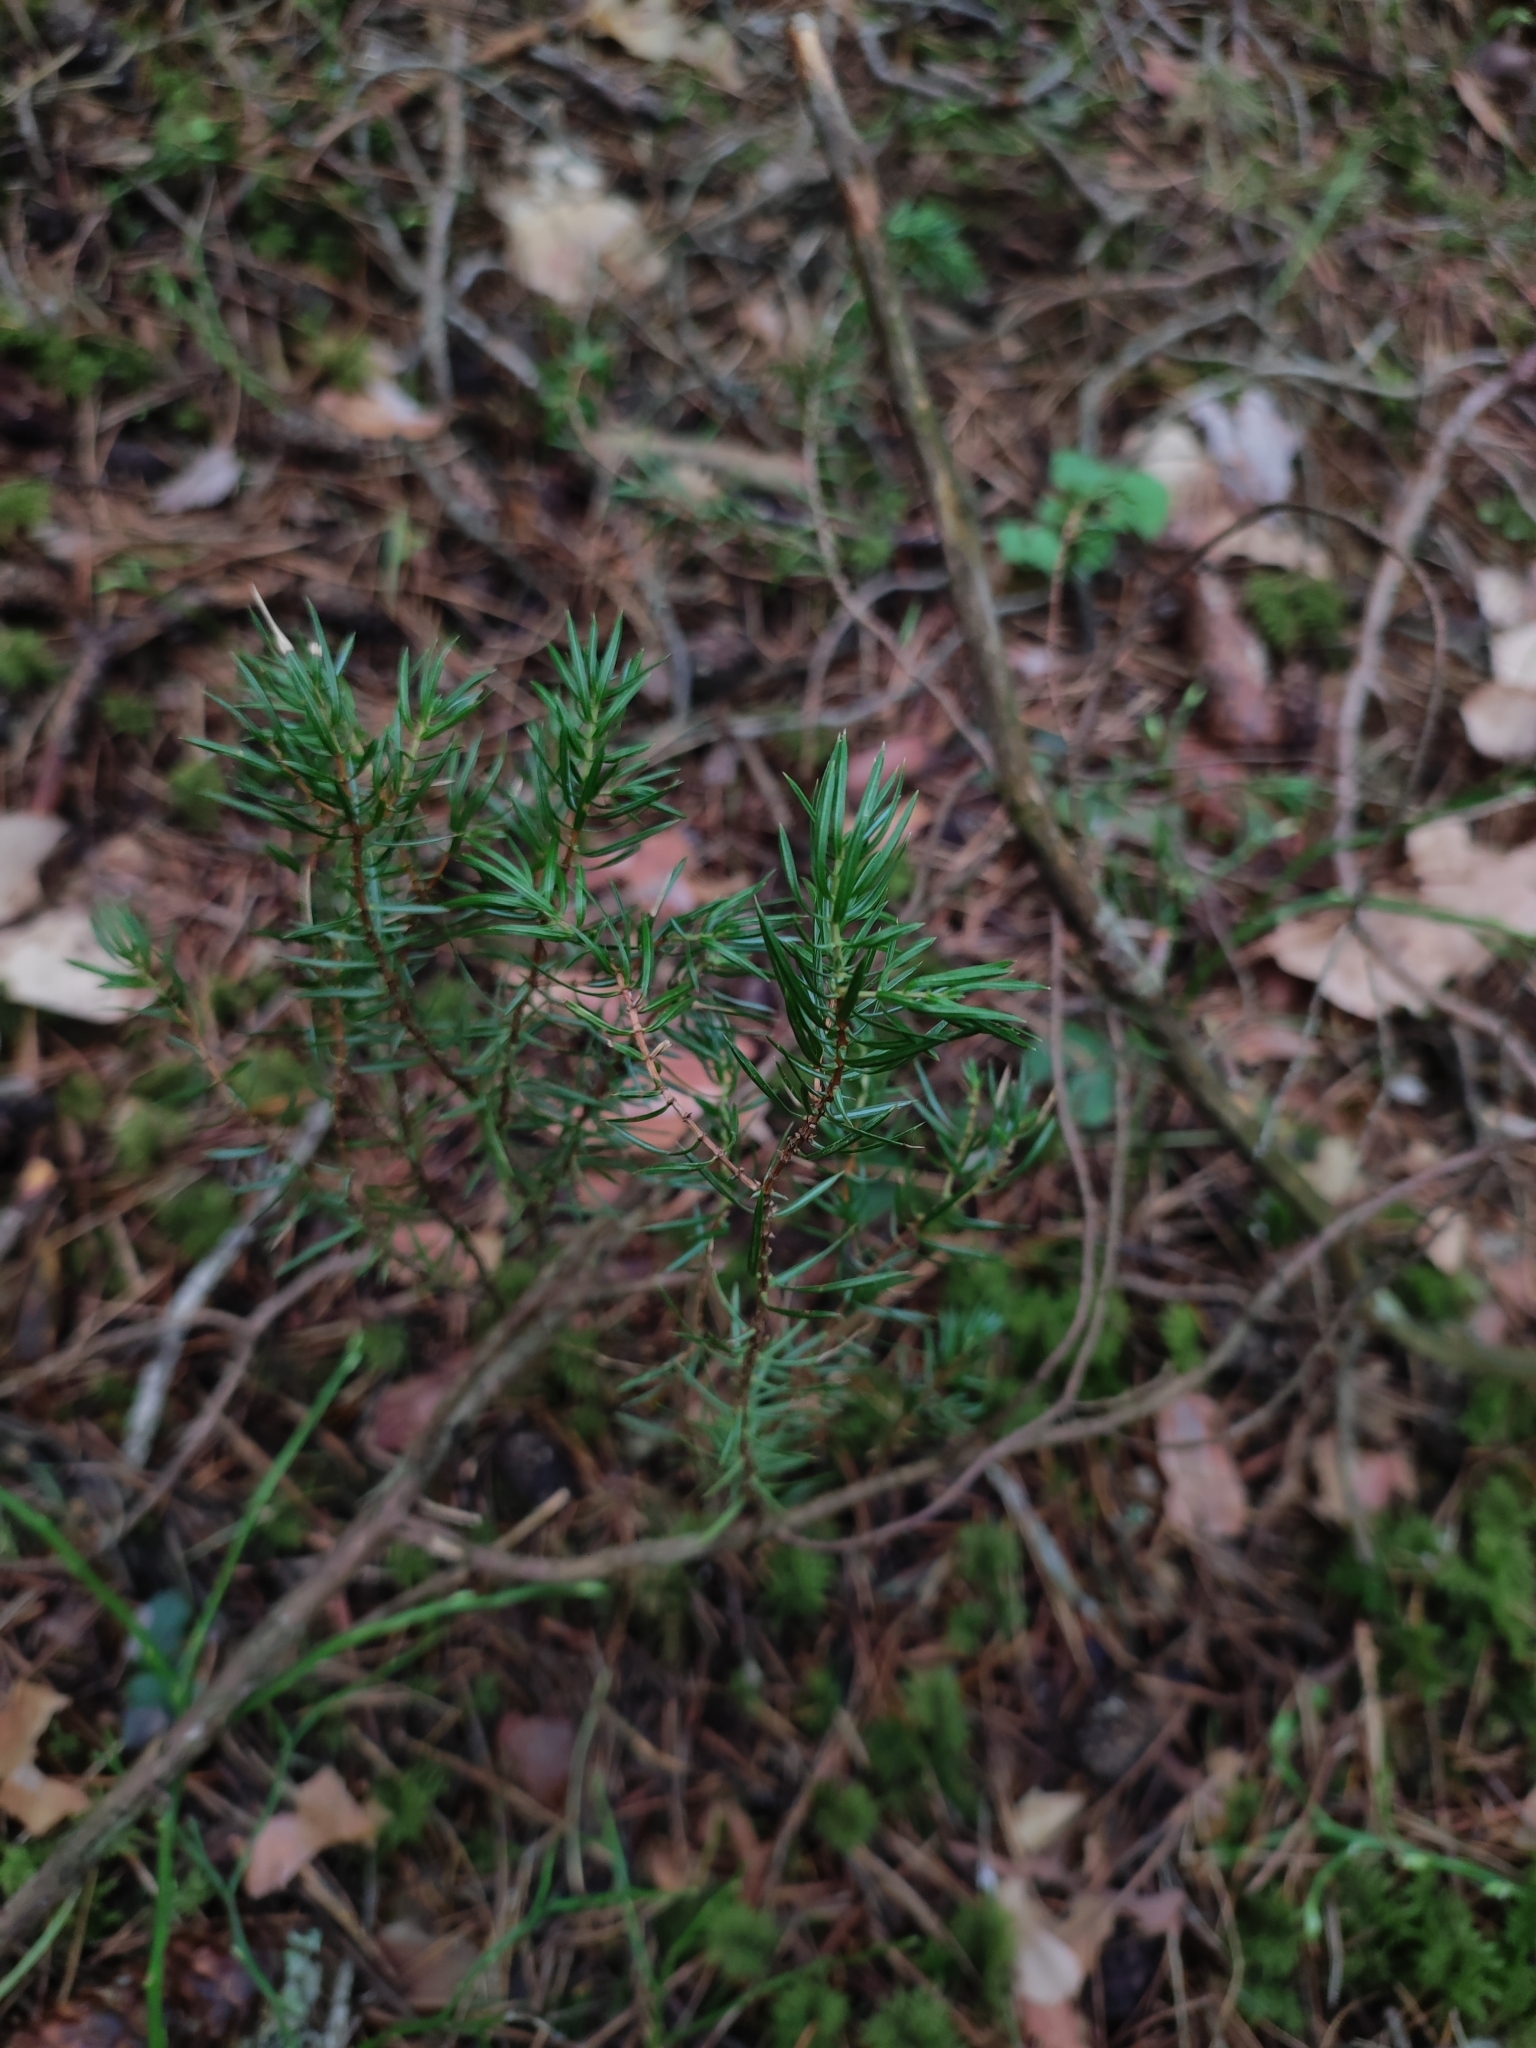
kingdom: Plantae
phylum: Tracheophyta
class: Pinopsida
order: Pinales
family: Cupressaceae
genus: Juniperus
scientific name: Juniperus communis
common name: Common juniper
